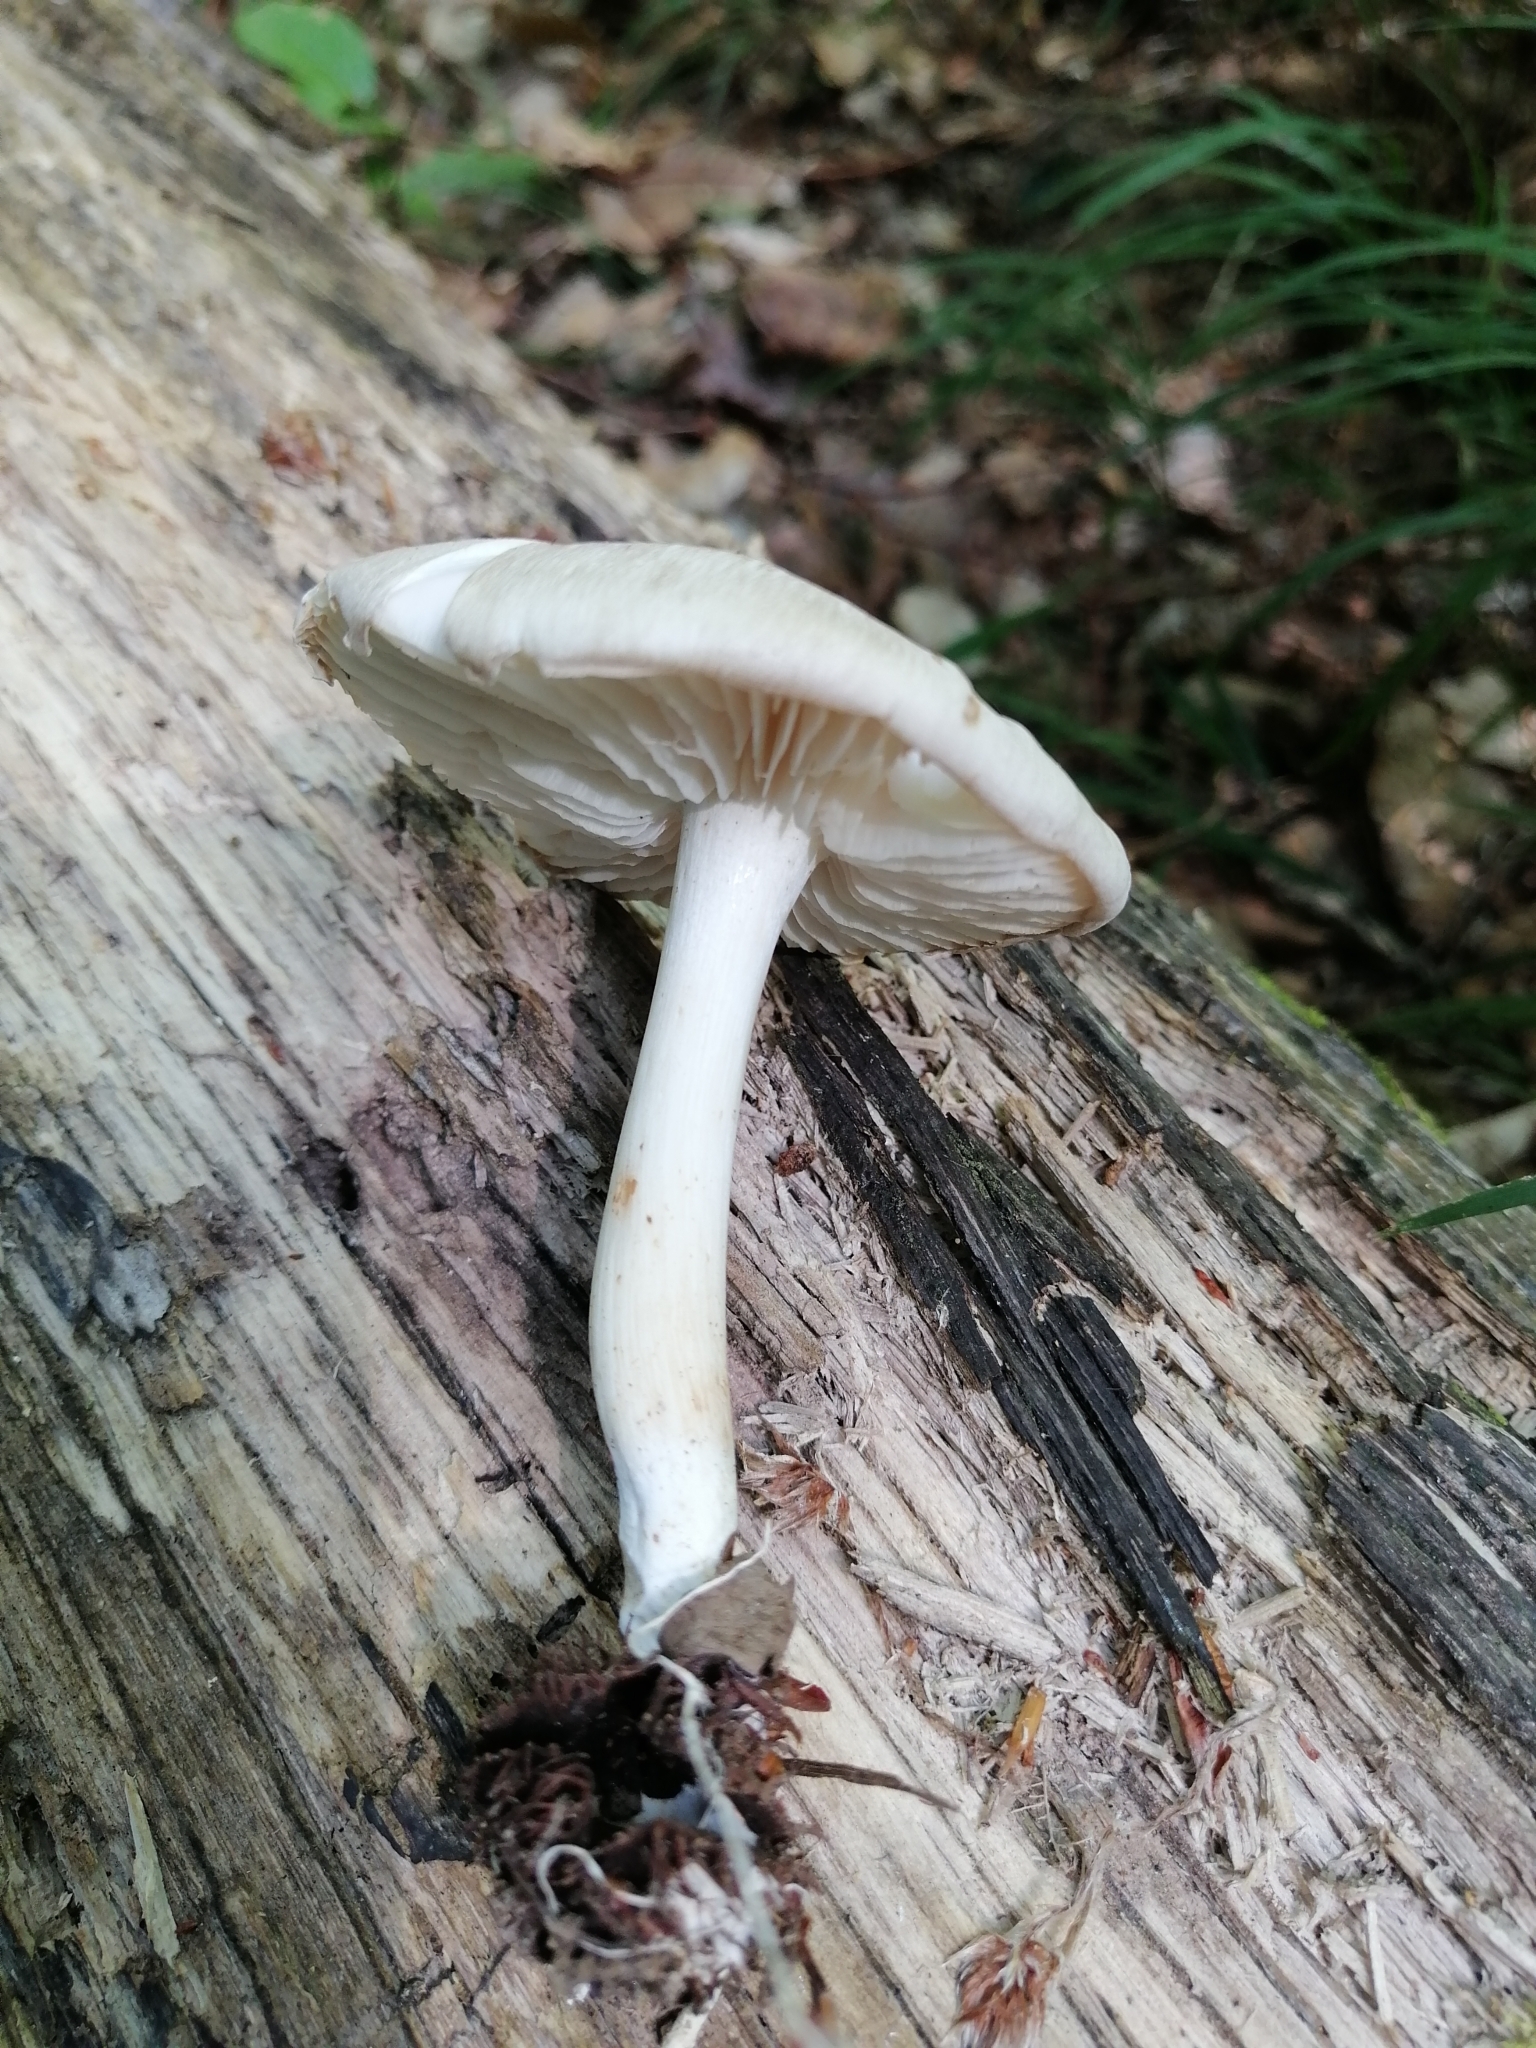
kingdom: Fungi
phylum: Basidiomycota
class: Agaricomycetes
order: Agaricales
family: Tricholomataceae
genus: Megacollybia
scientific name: Megacollybia platyphylla
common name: Whitelaced shank
